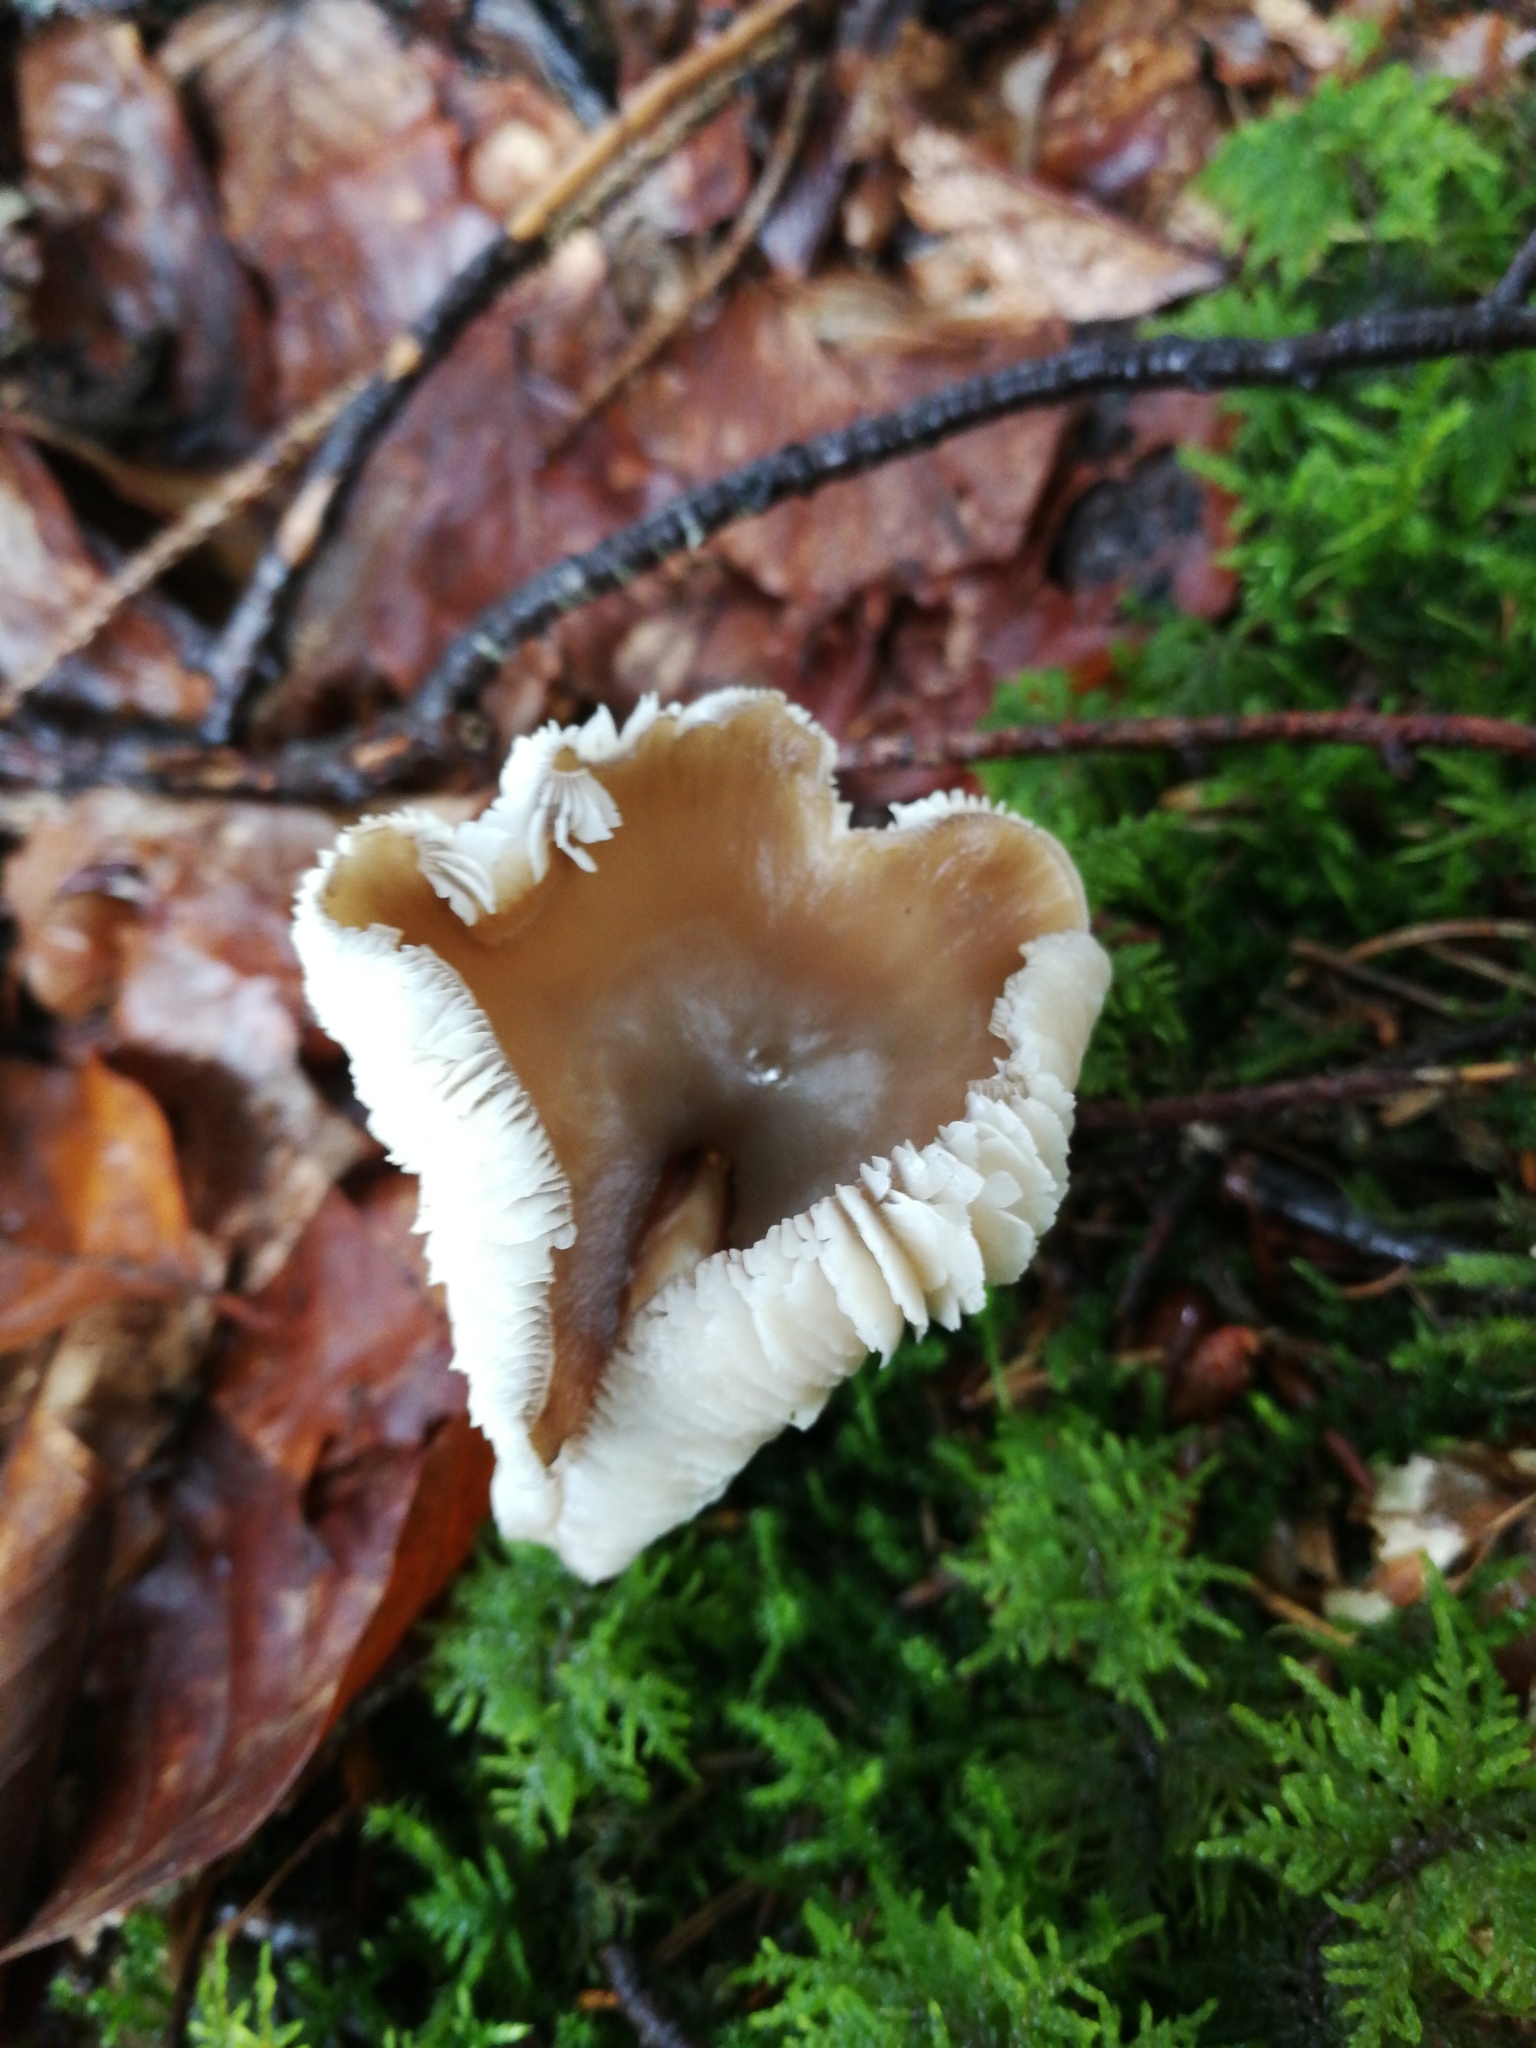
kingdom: Fungi
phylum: Basidiomycota
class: Agaricomycetes
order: Agaricales
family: Omphalotaceae
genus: Rhodocollybia
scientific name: Rhodocollybia butyracea
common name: Butter cap
